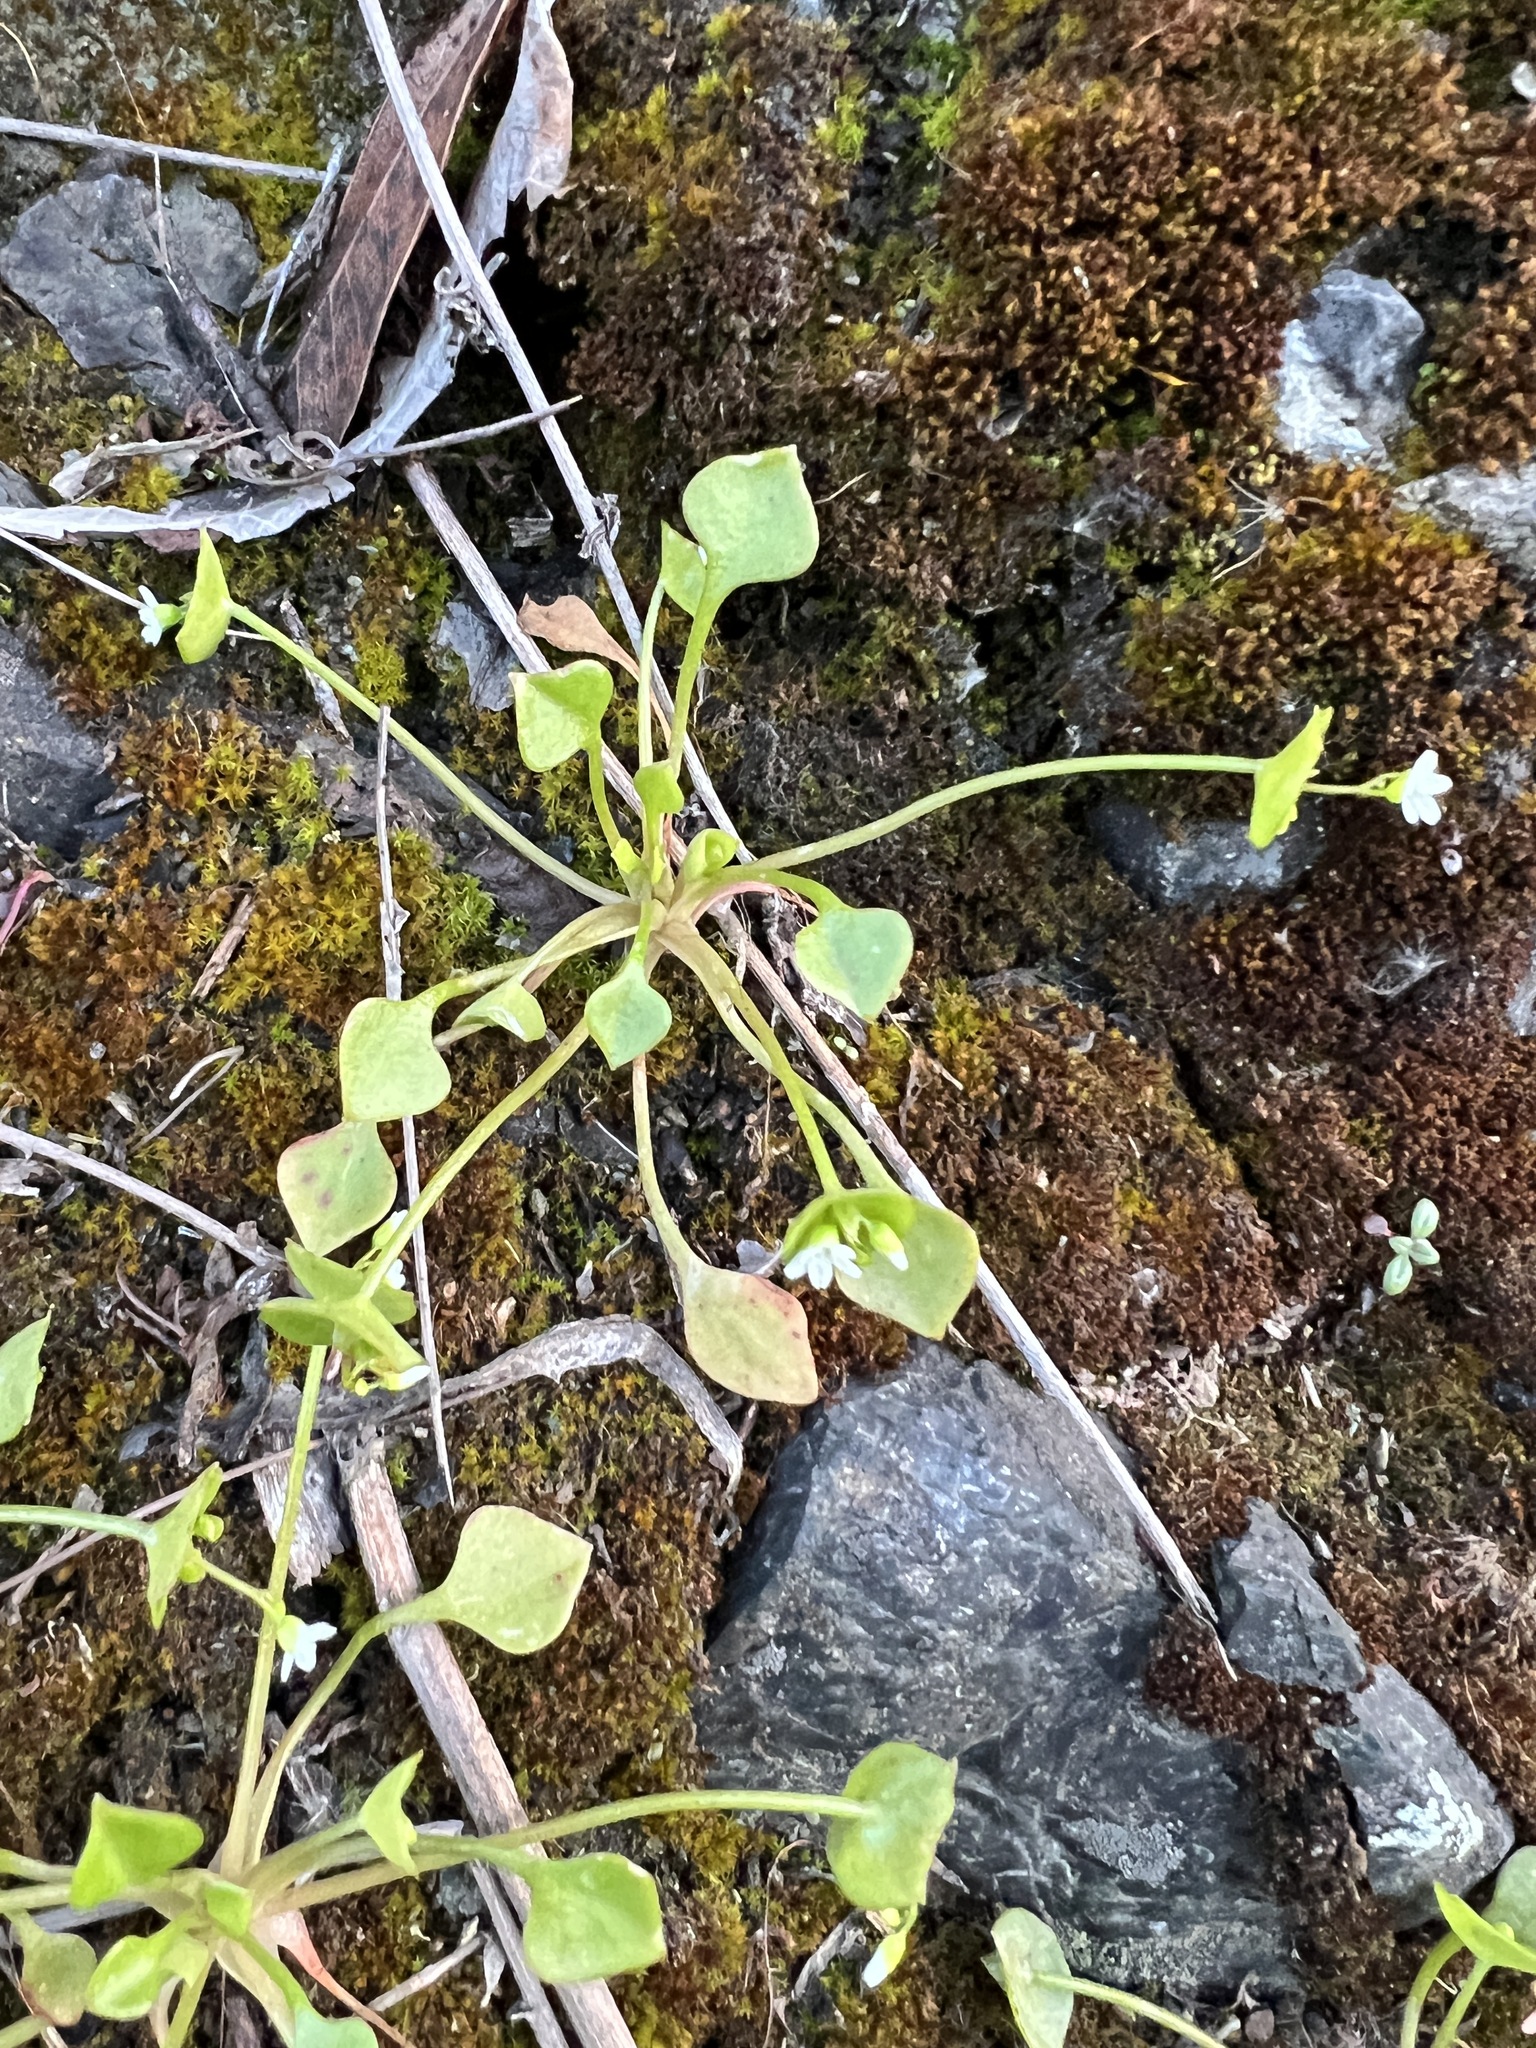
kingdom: Plantae
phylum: Tracheophyta
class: Magnoliopsida
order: Caryophyllales
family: Montiaceae
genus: Claytonia
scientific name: Claytonia perfoliata
